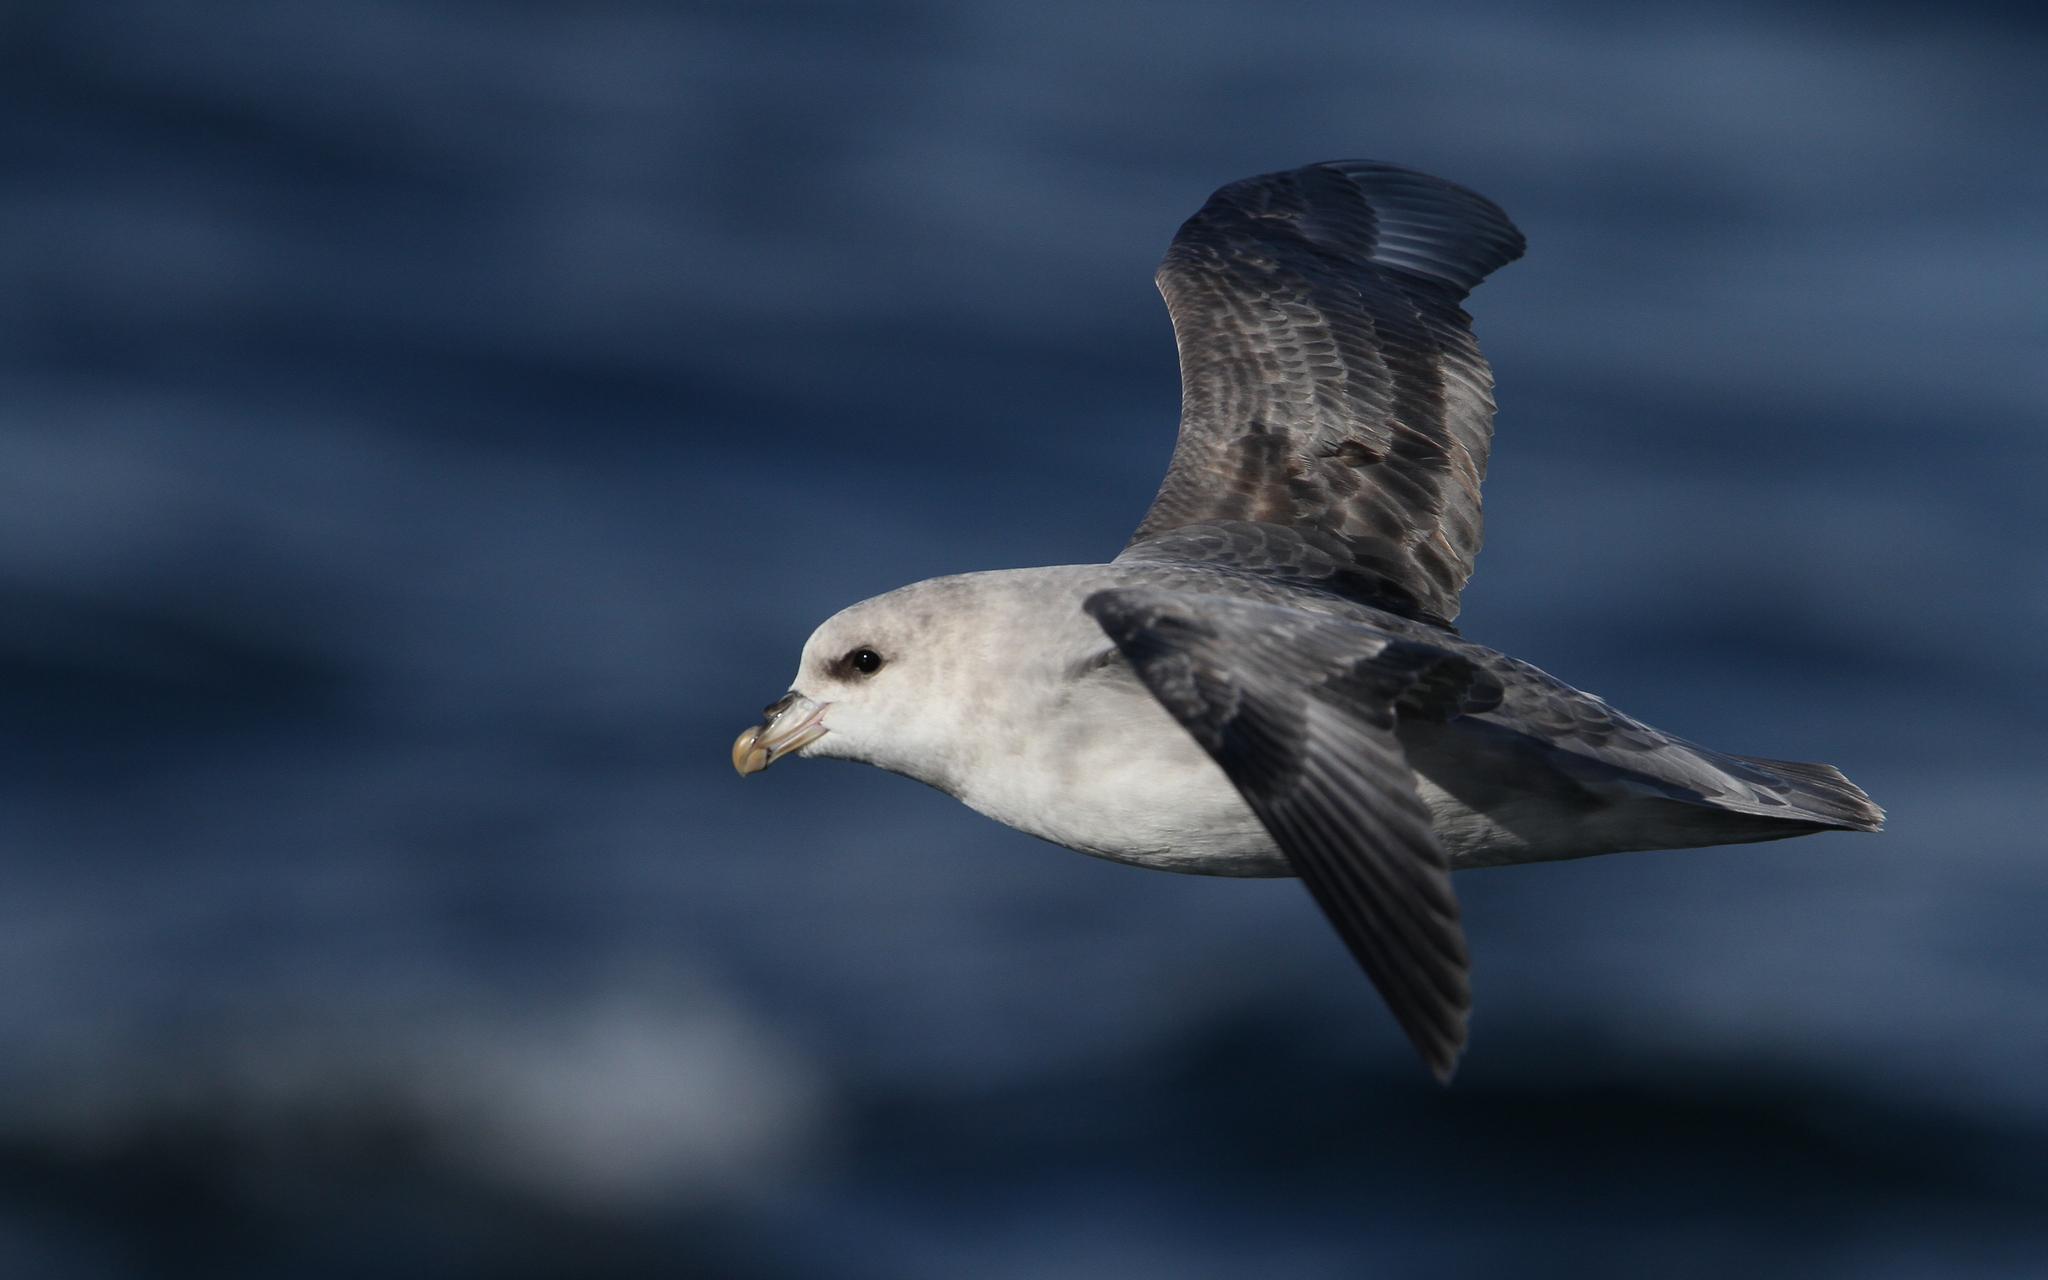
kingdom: Animalia
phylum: Chordata
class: Aves
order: Procellariiformes
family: Procellariidae
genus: Fulmarus
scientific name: Fulmarus glacialis
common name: Northern fulmar
